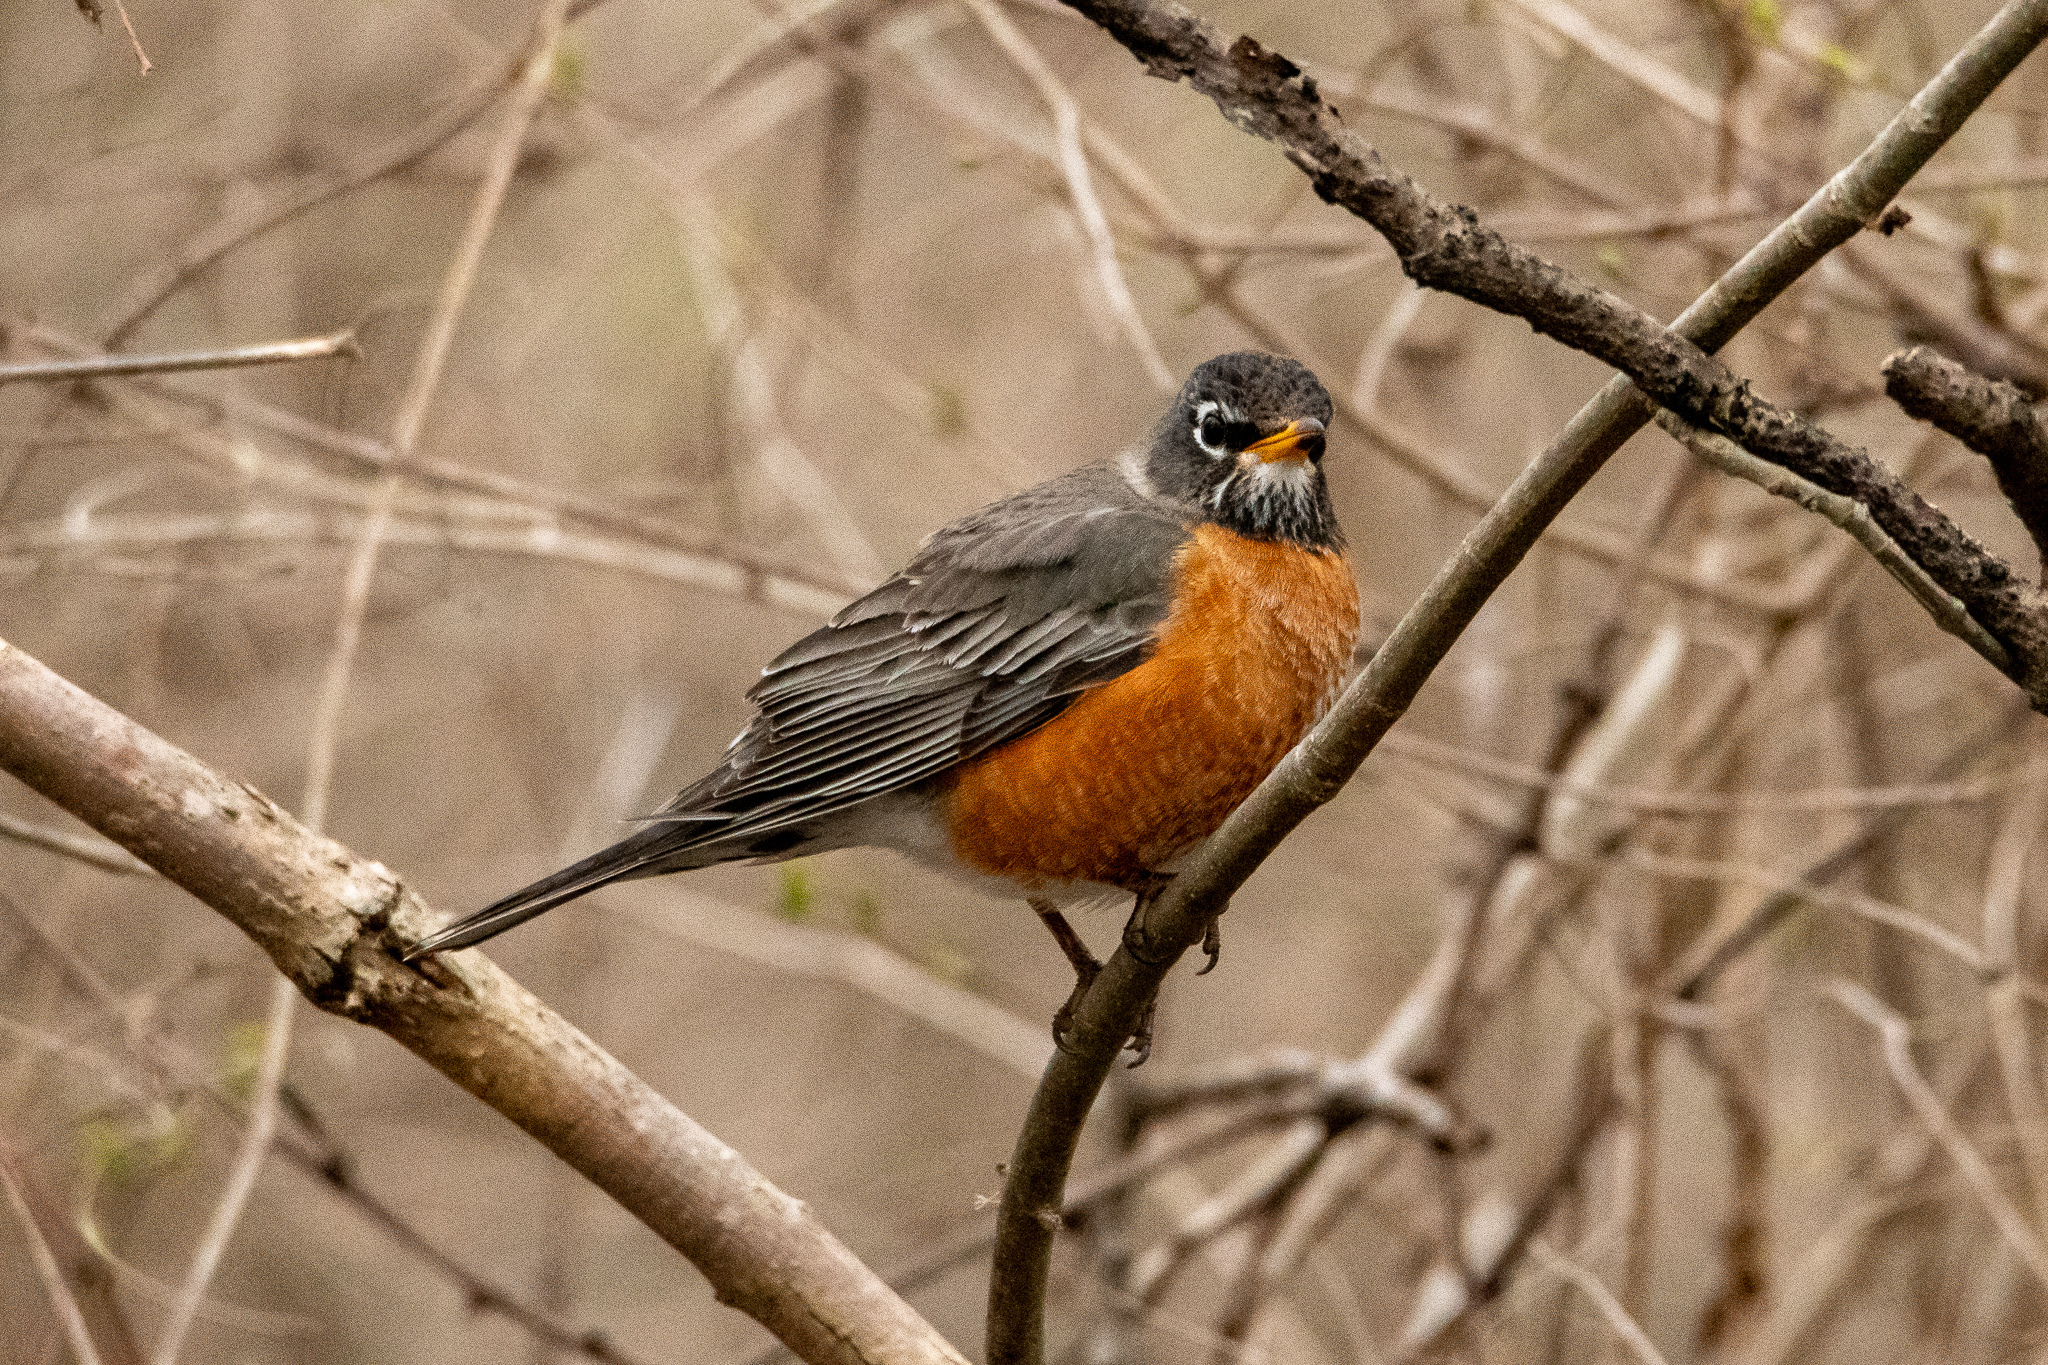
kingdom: Animalia
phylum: Chordata
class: Aves
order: Passeriformes
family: Turdidae
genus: Turdus
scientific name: Turdus migratorius
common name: American robin
